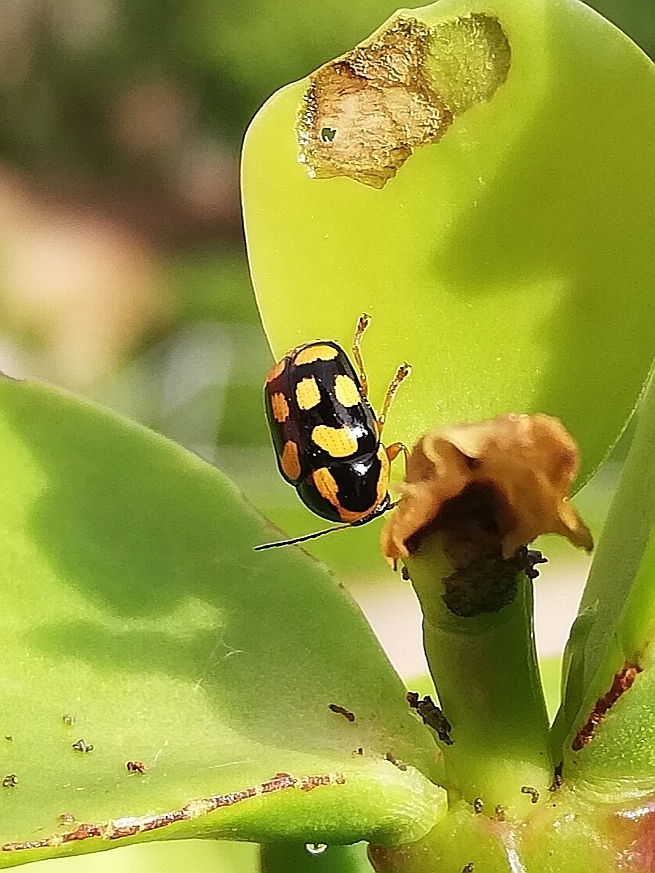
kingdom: Animalia
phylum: Arthropoda
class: Insecta
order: Coleoptera
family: Chrysomelidae
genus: Cryptocephalus
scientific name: Cryptocephalus
